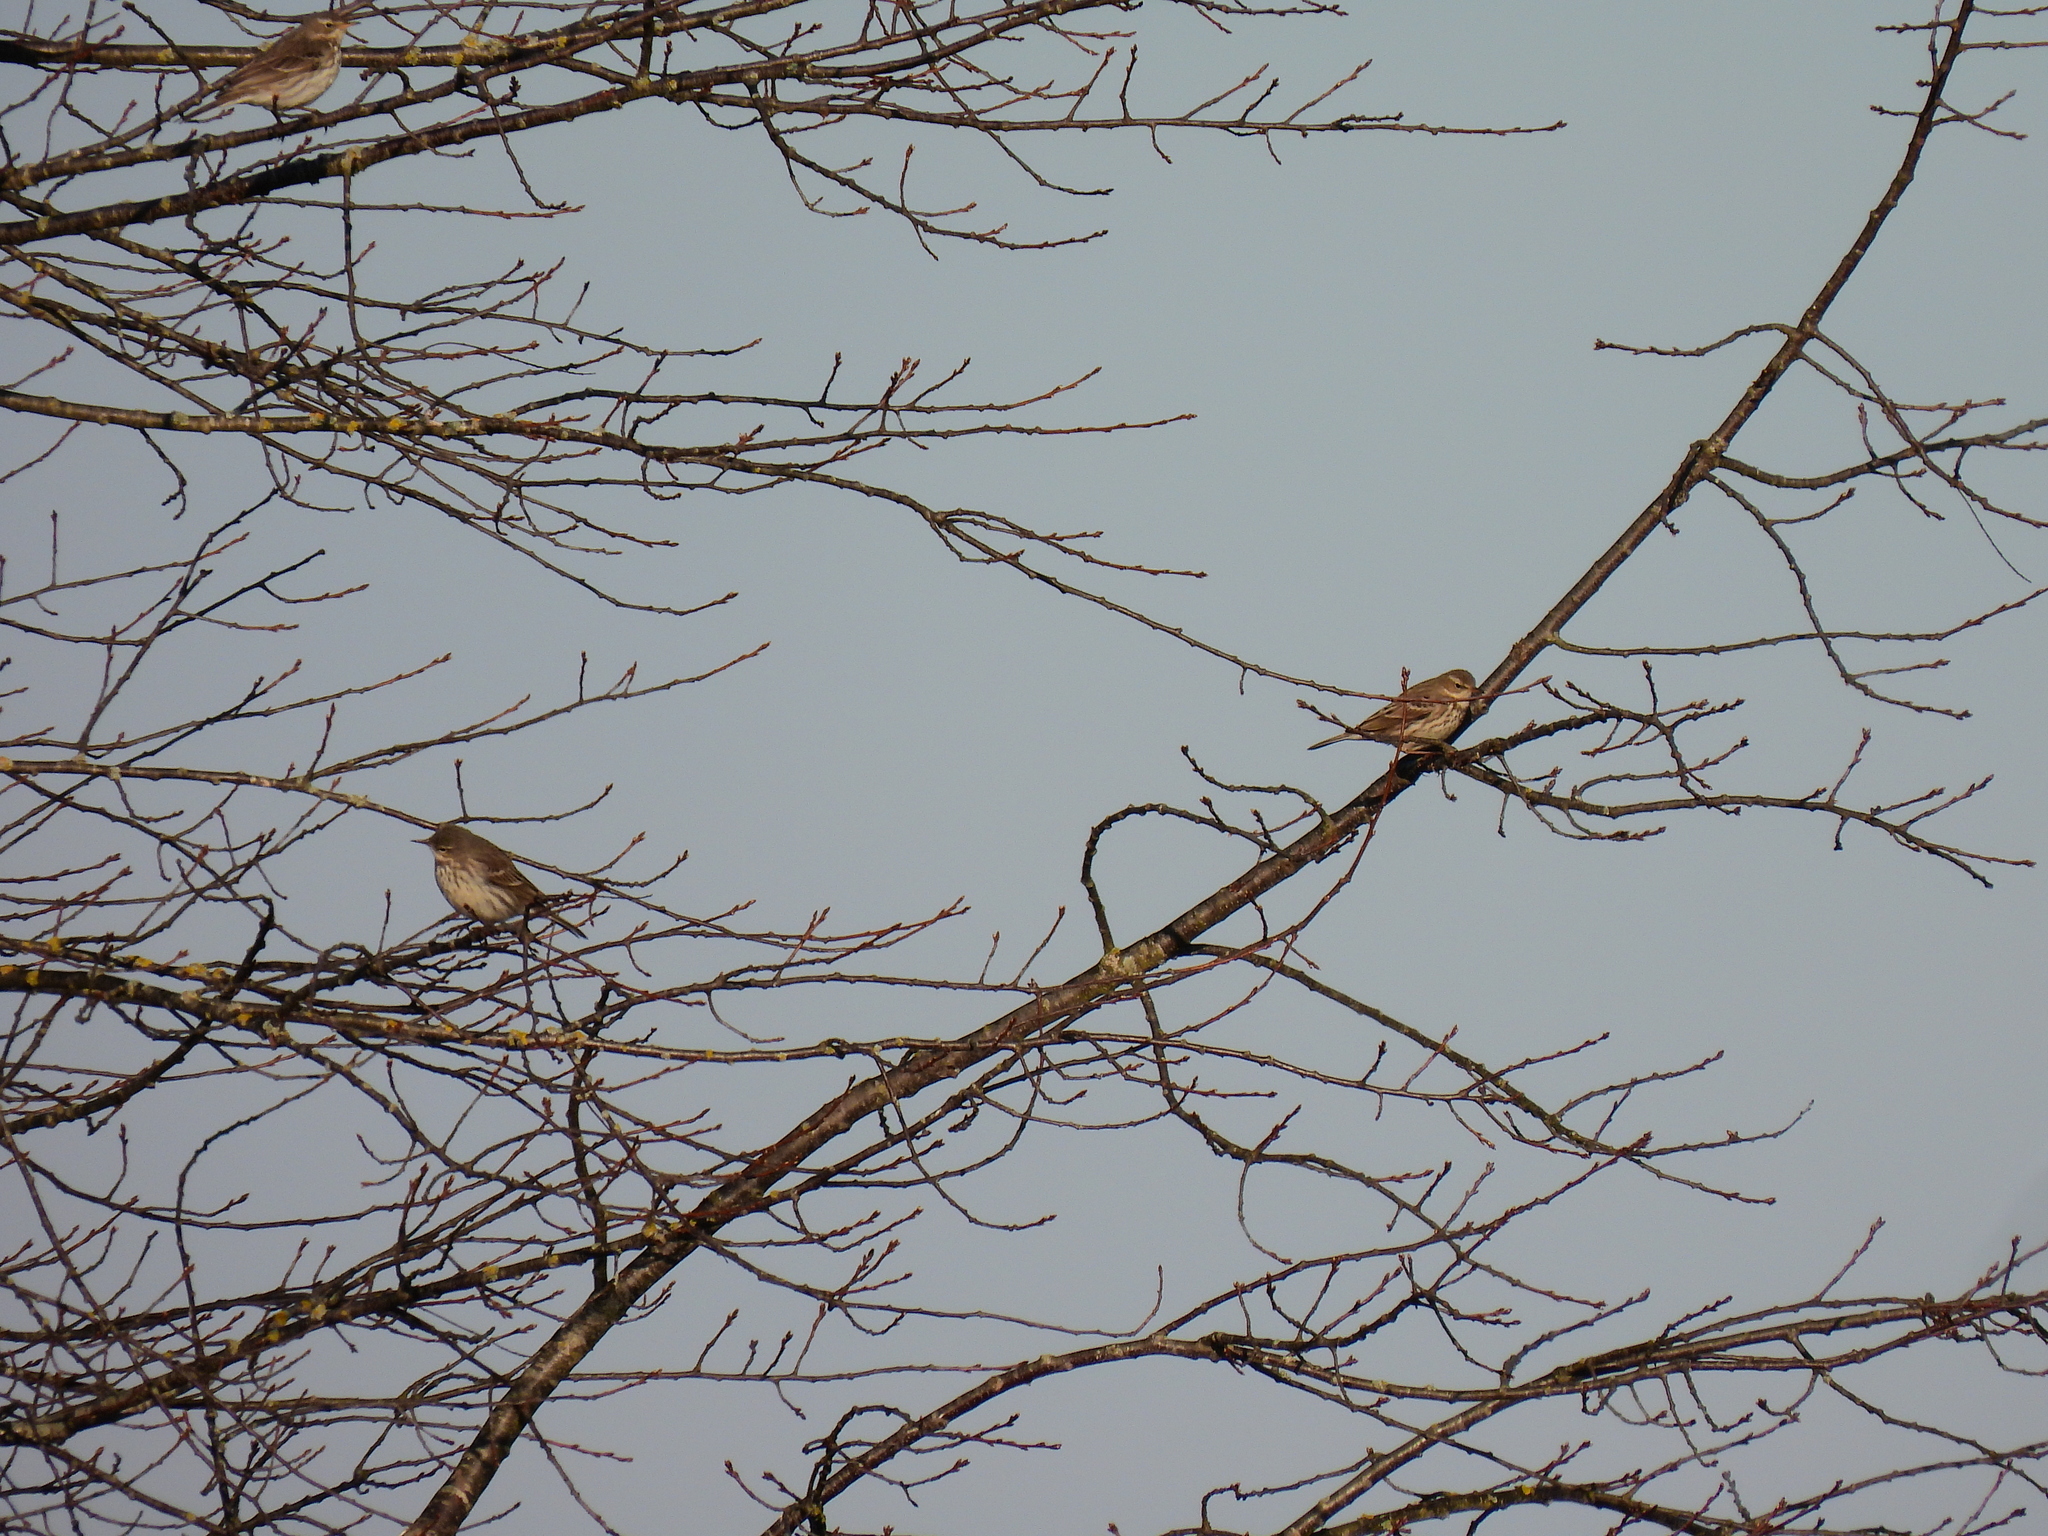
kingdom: Animalia
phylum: Chordata
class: Aves
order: Passeriformes
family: Motacillidae
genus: Anthus
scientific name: Anthus spinoletta
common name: Water pipit
